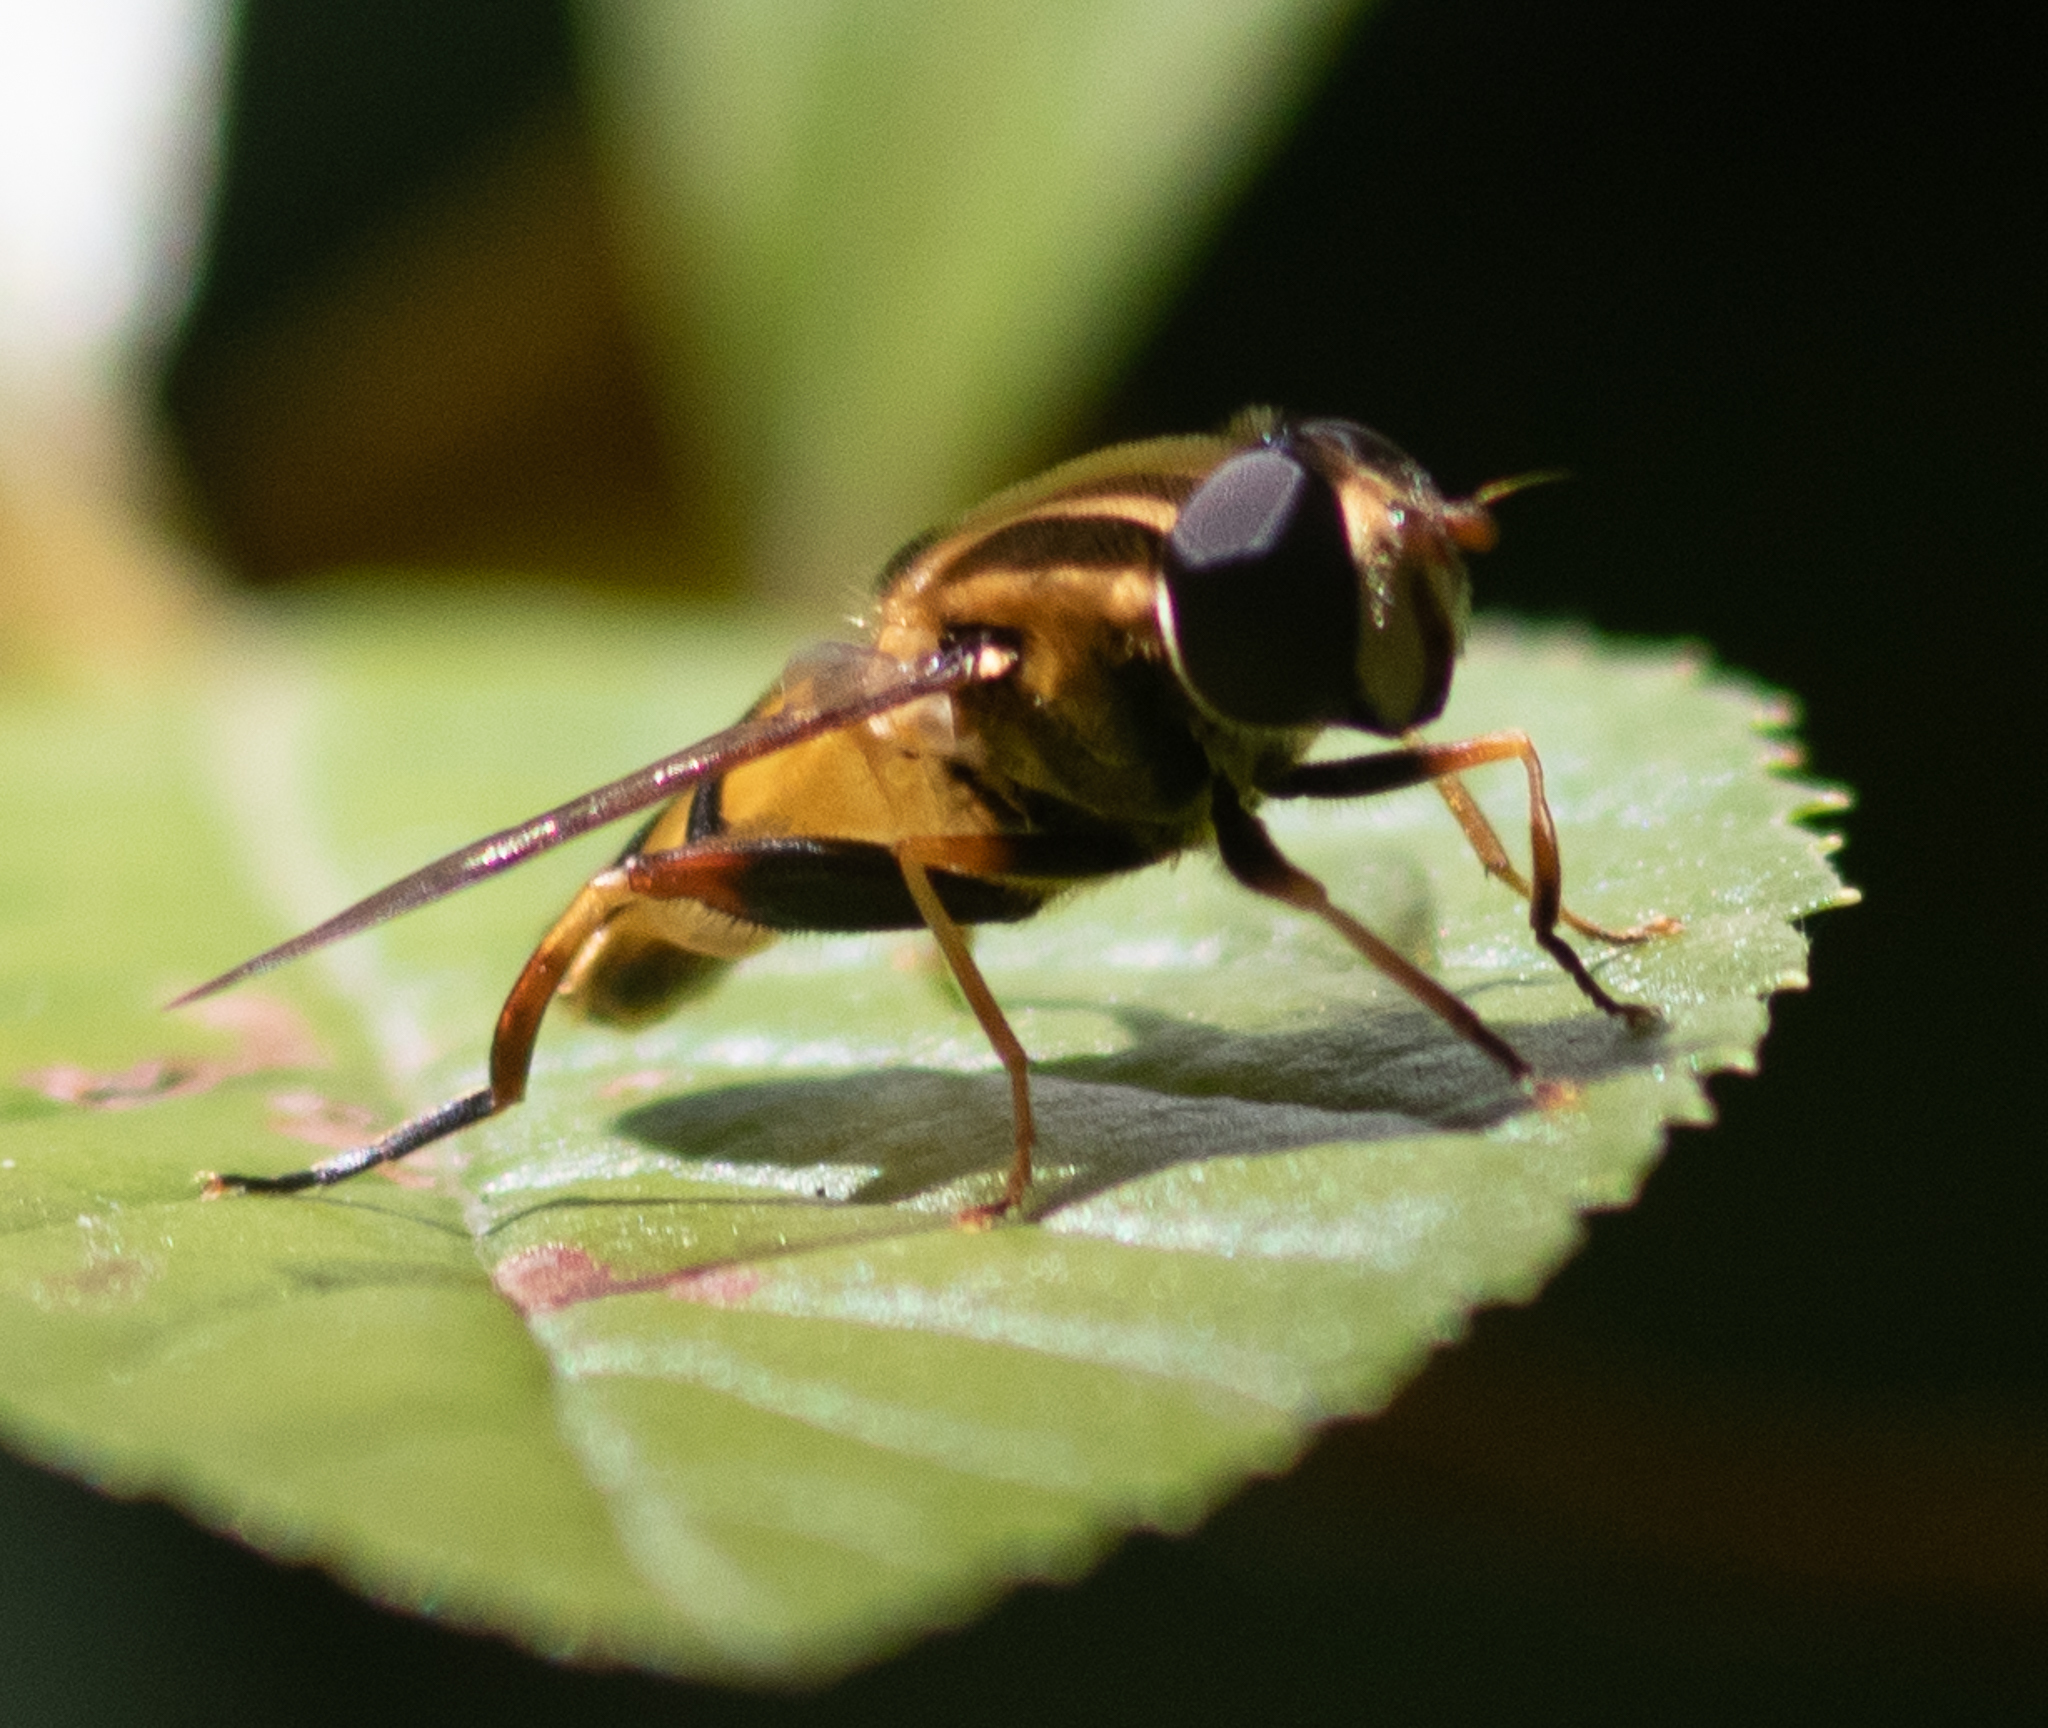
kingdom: Animalia
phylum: Arthropoda
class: Insecta
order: Diptera
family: Syrphidae
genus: Helophilus
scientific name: Helophilus fasciatus
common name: Narrow-headed marsh fly
